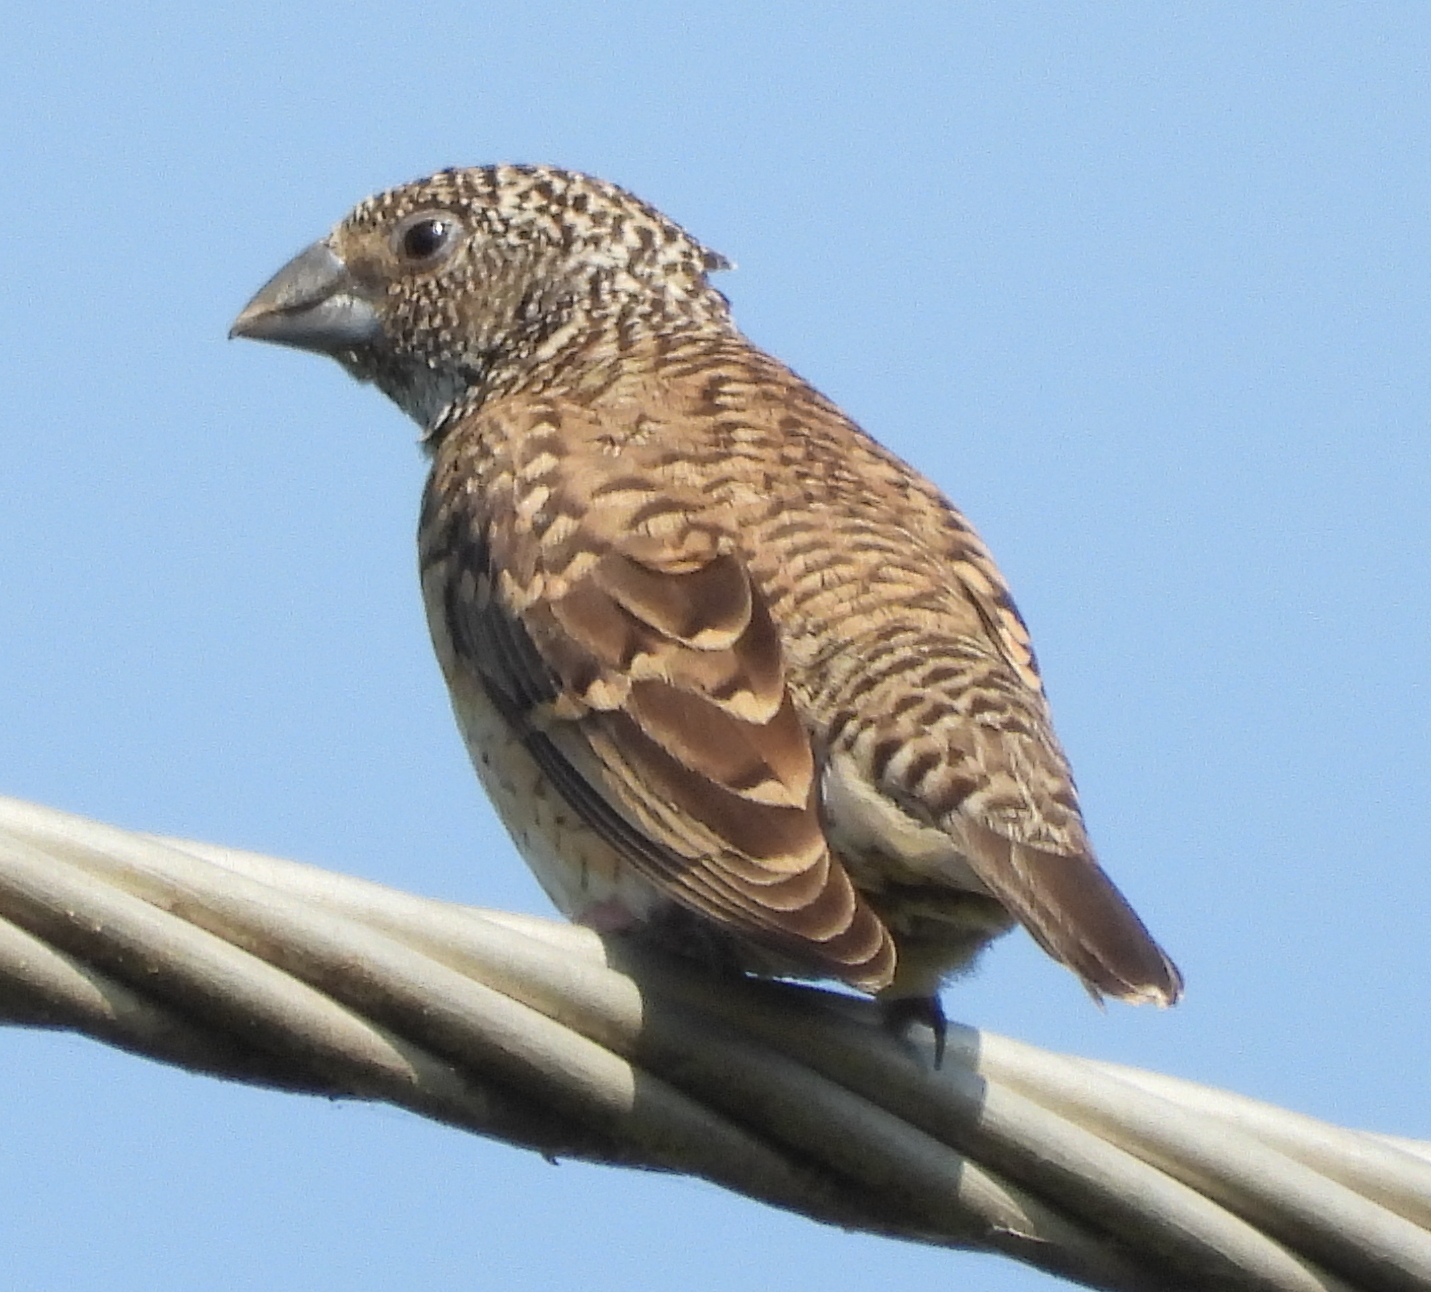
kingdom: Animalia
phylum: Chordata
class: Aves
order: Passeriformes
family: Estrildidae
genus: Amadina
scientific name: Amadina fasciata
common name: Cut-throat finch
